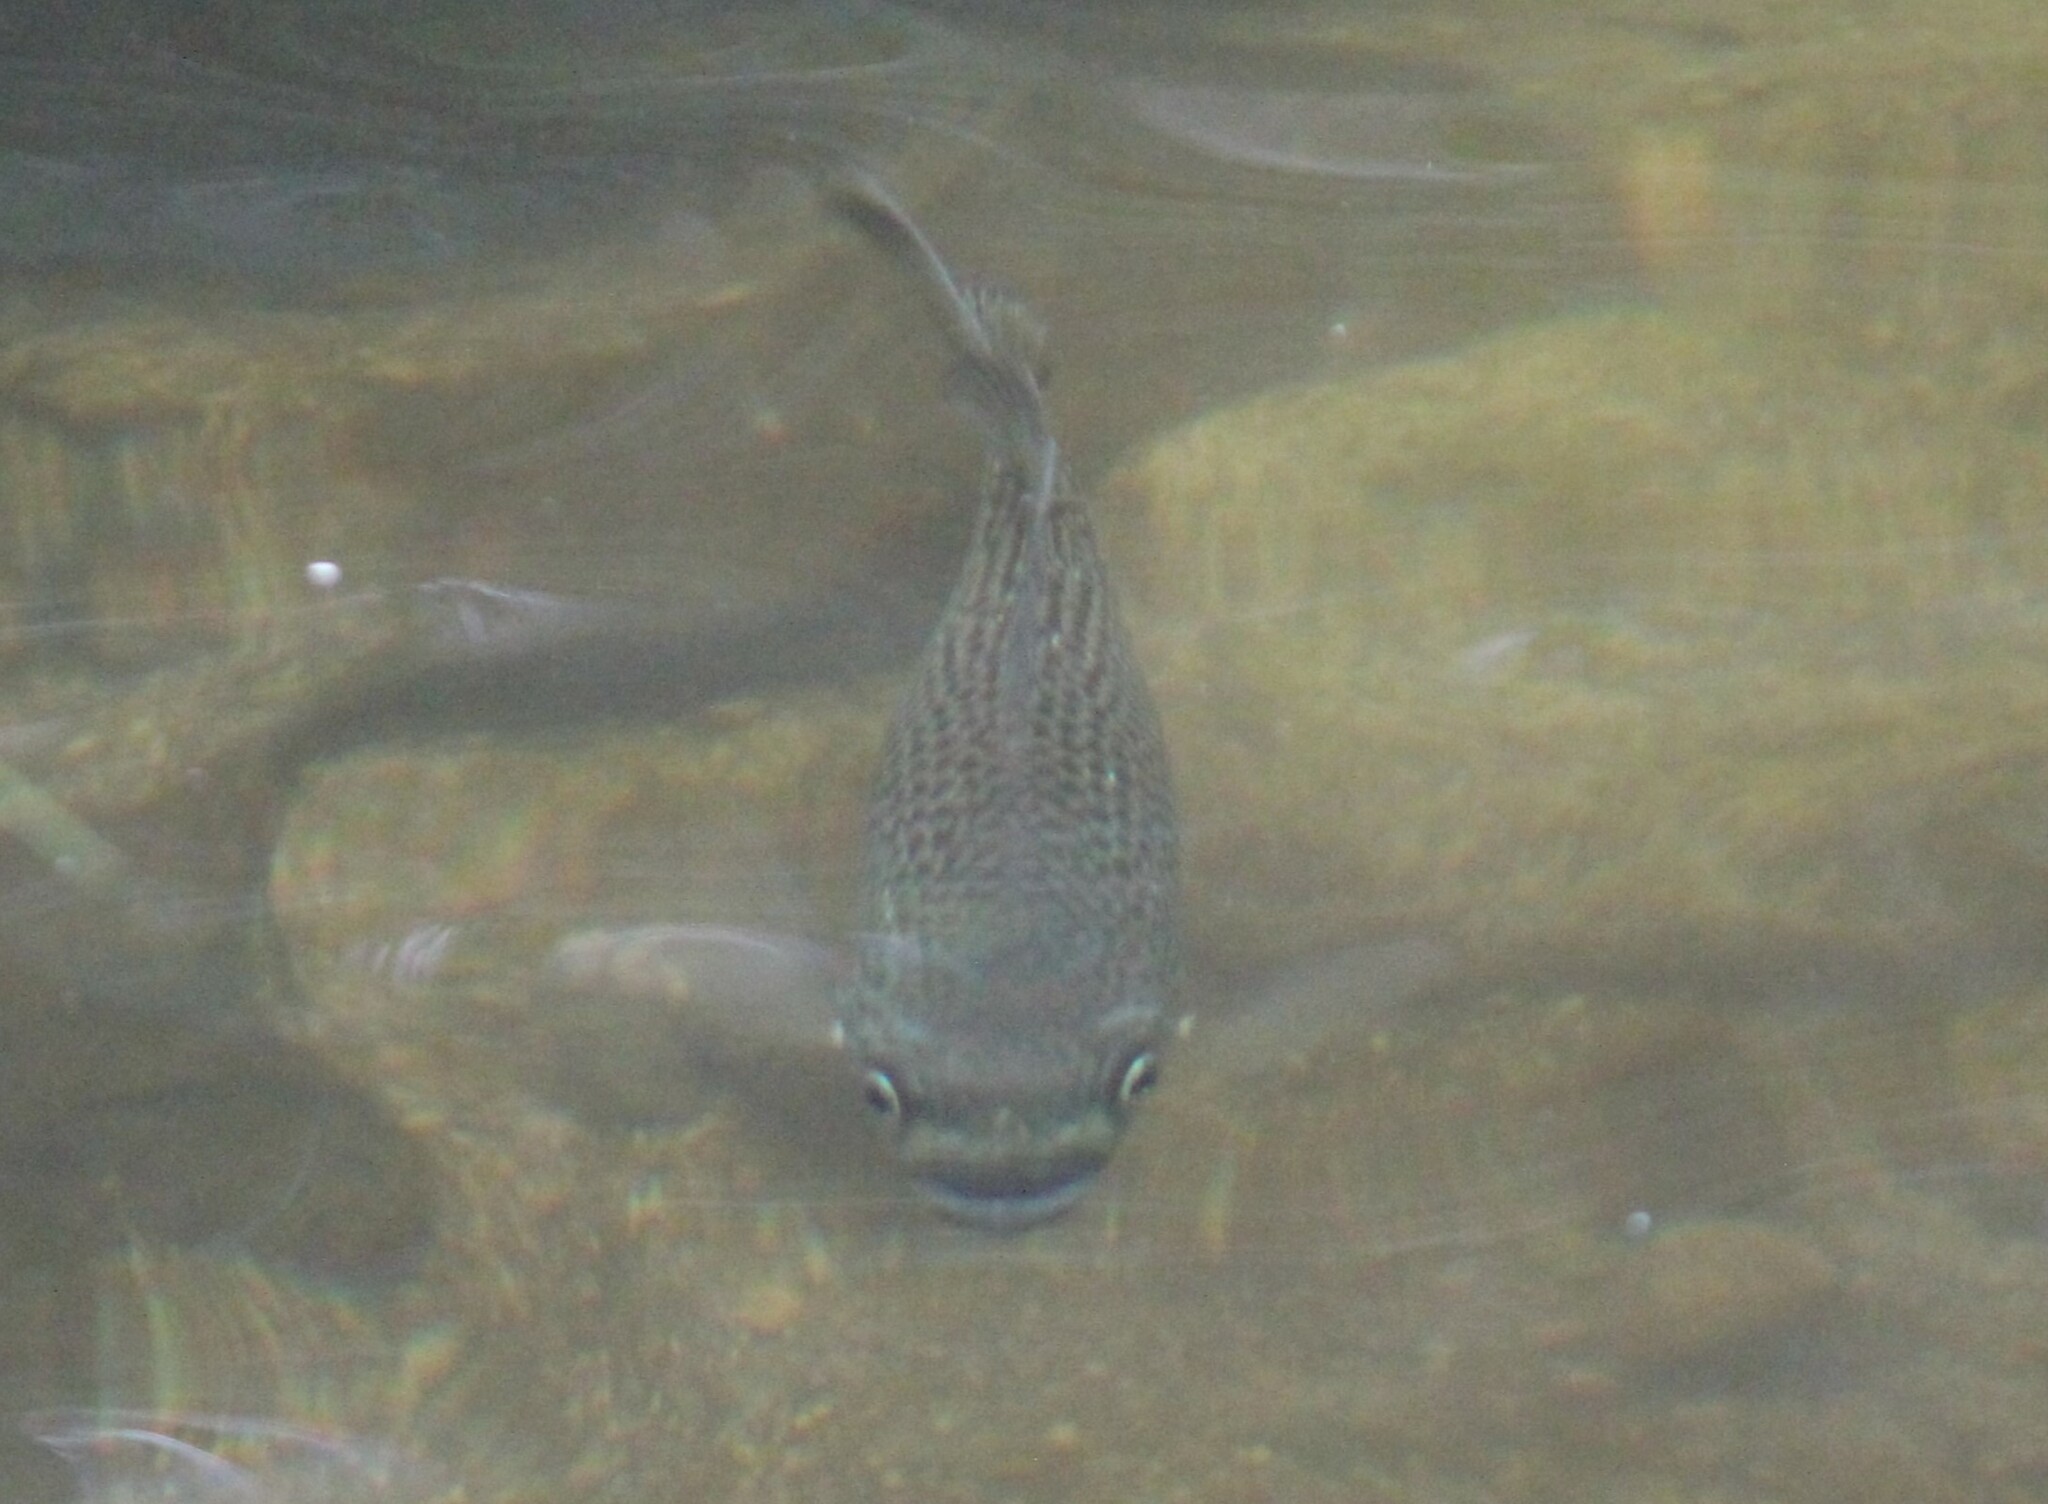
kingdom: Animalia
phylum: Chordata
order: Perciformes
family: Kuhliidae
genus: Kuhlia
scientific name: Kuhlia rupestris
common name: Rock flagtail
